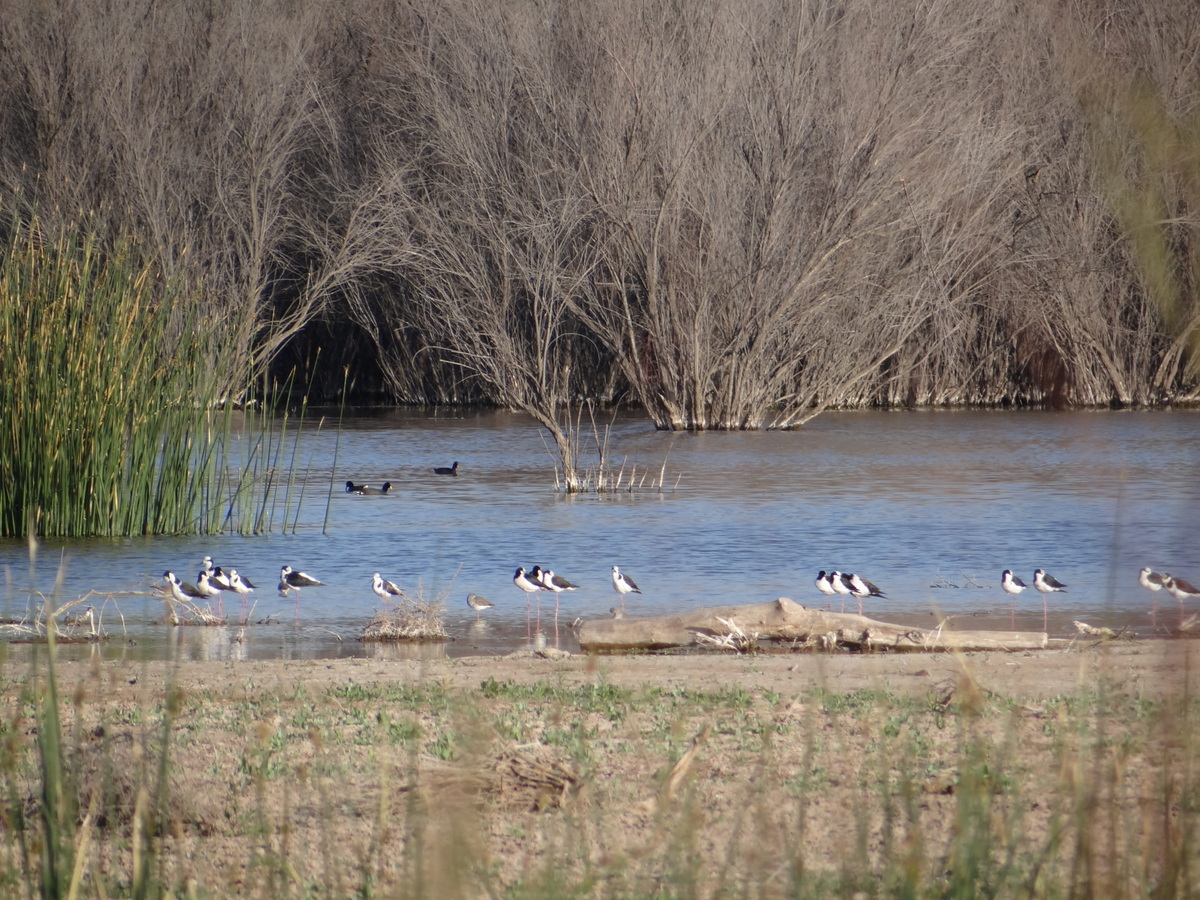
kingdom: Animalia
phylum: Chordata
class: Aves
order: Charadriiformes
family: Recurvirostridae
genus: Himantopus
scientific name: Himantopus mexicanus
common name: Black-necked stilt
